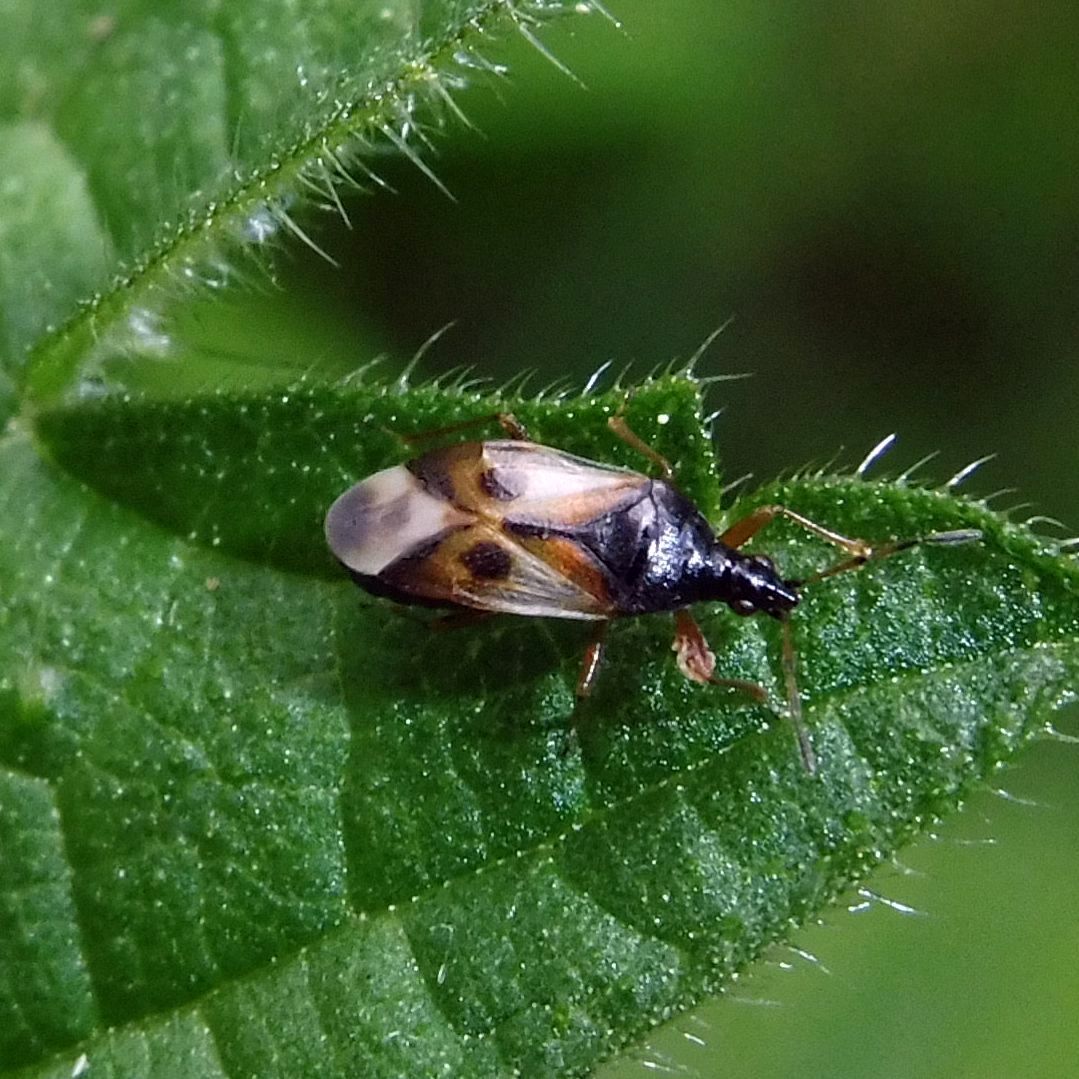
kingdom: Animalia
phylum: Arthropoda
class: Insecta
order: Hemiptera
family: Anthocoridae
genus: Anthocoris
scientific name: Anthocoris nemorum
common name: Minute pirate bug
